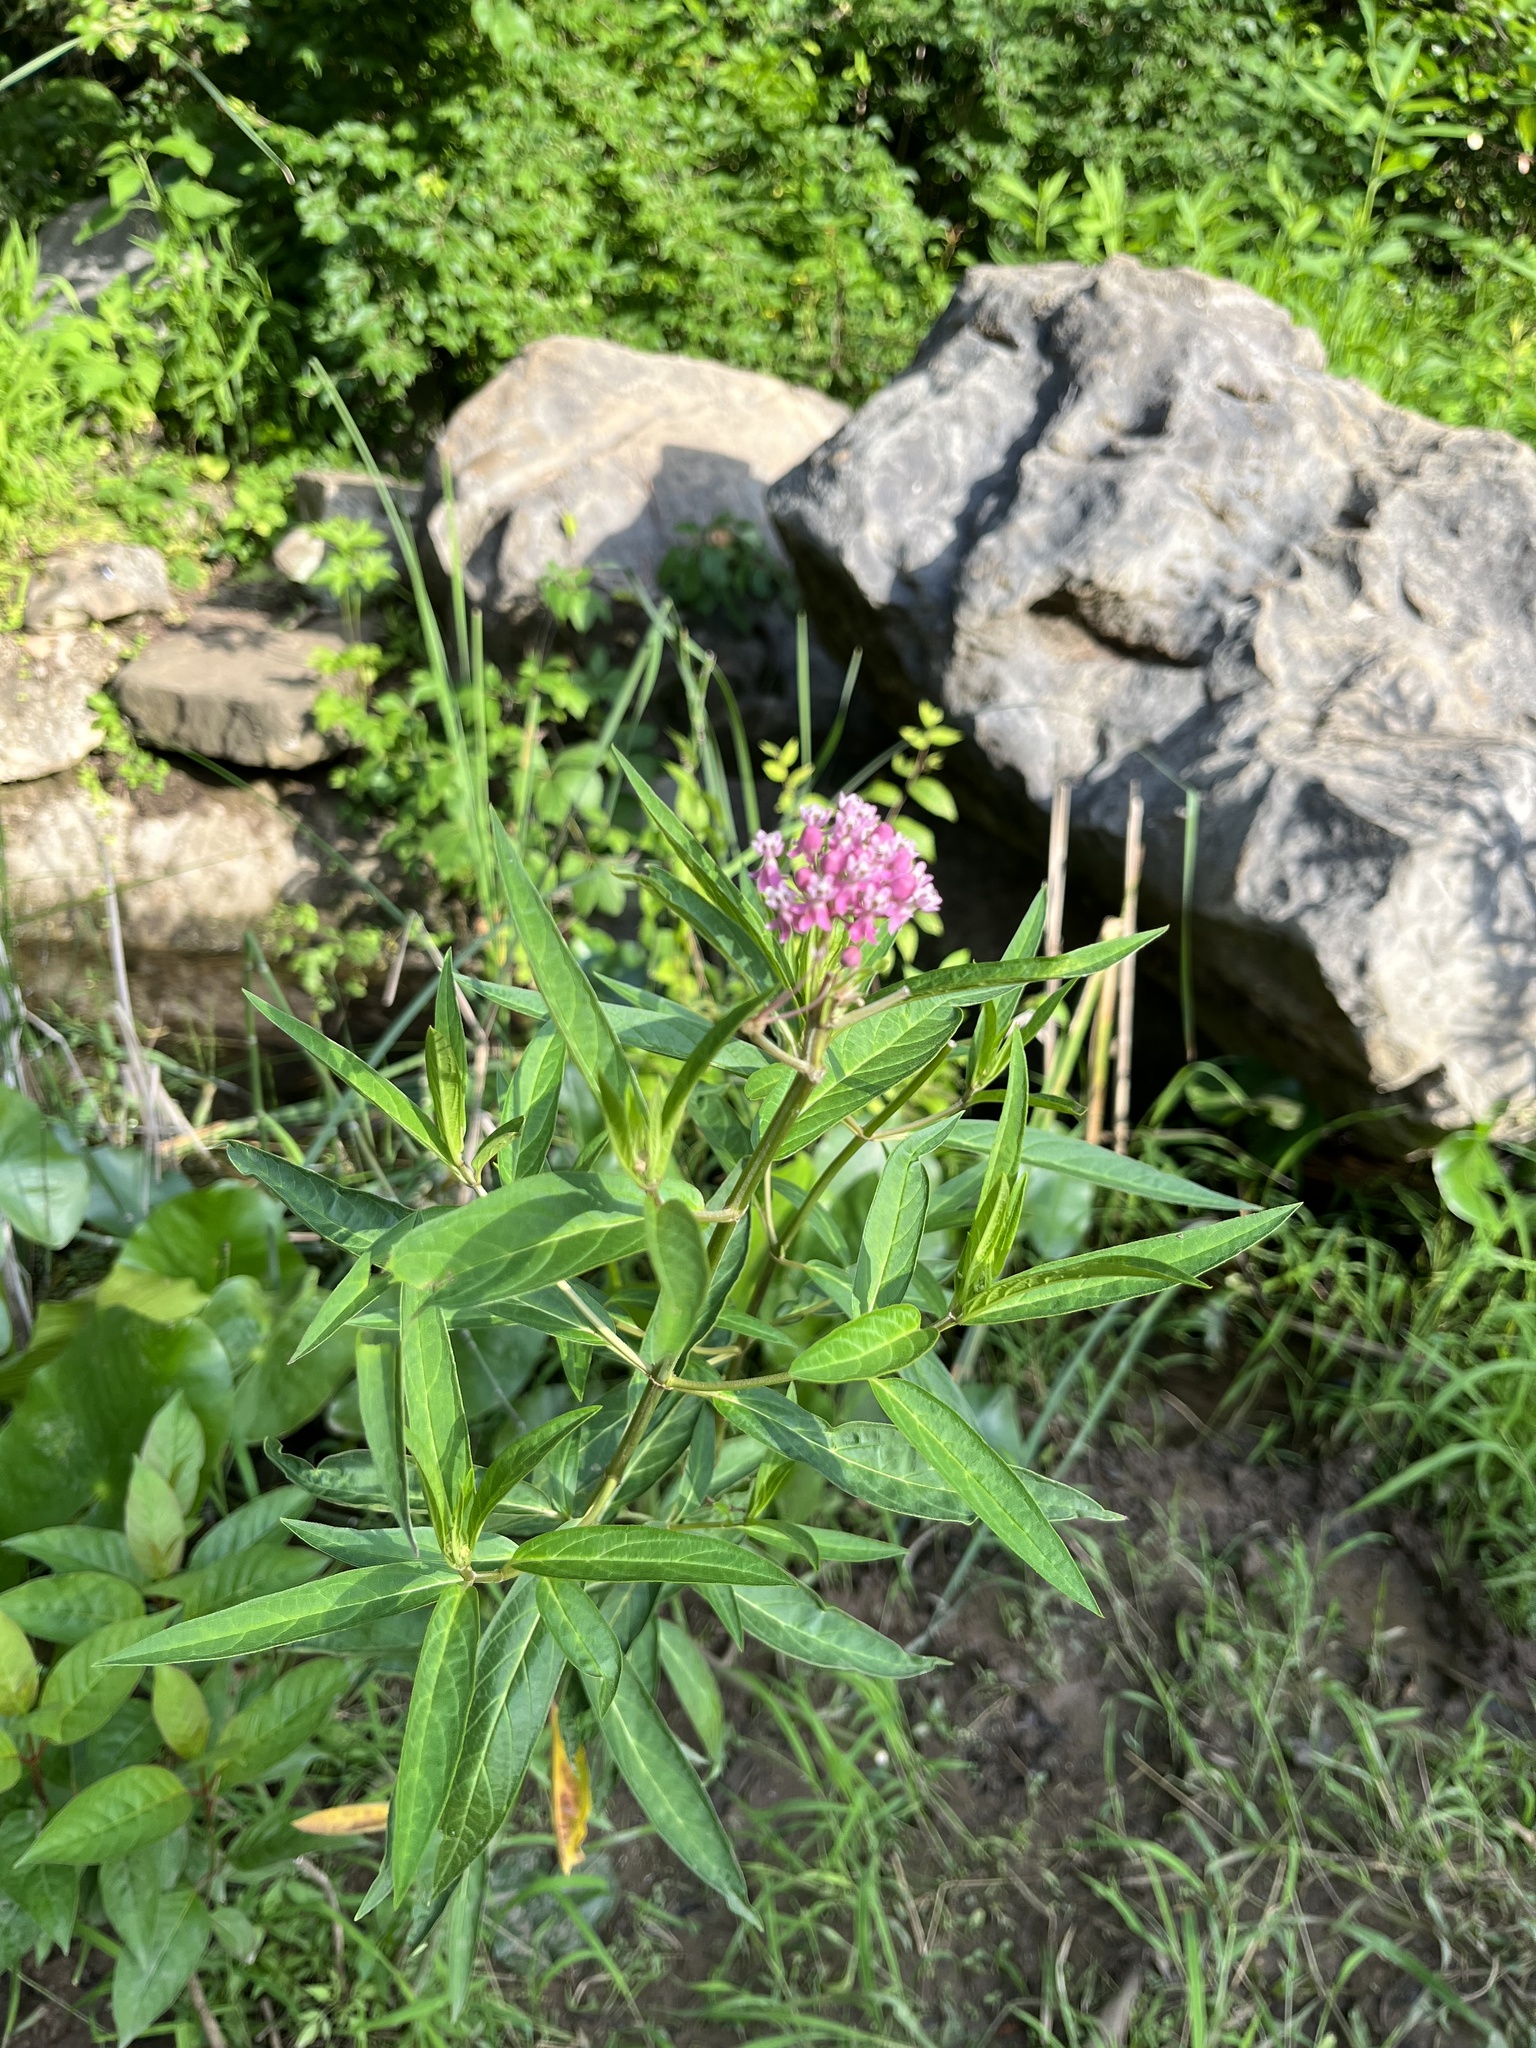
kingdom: Plantae
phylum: Tracheophyta
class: Magnoliopsida
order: Gentianales
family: Apocynaceae
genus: Asclepias
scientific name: Asclepias incarnata
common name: Swamp milkweed
